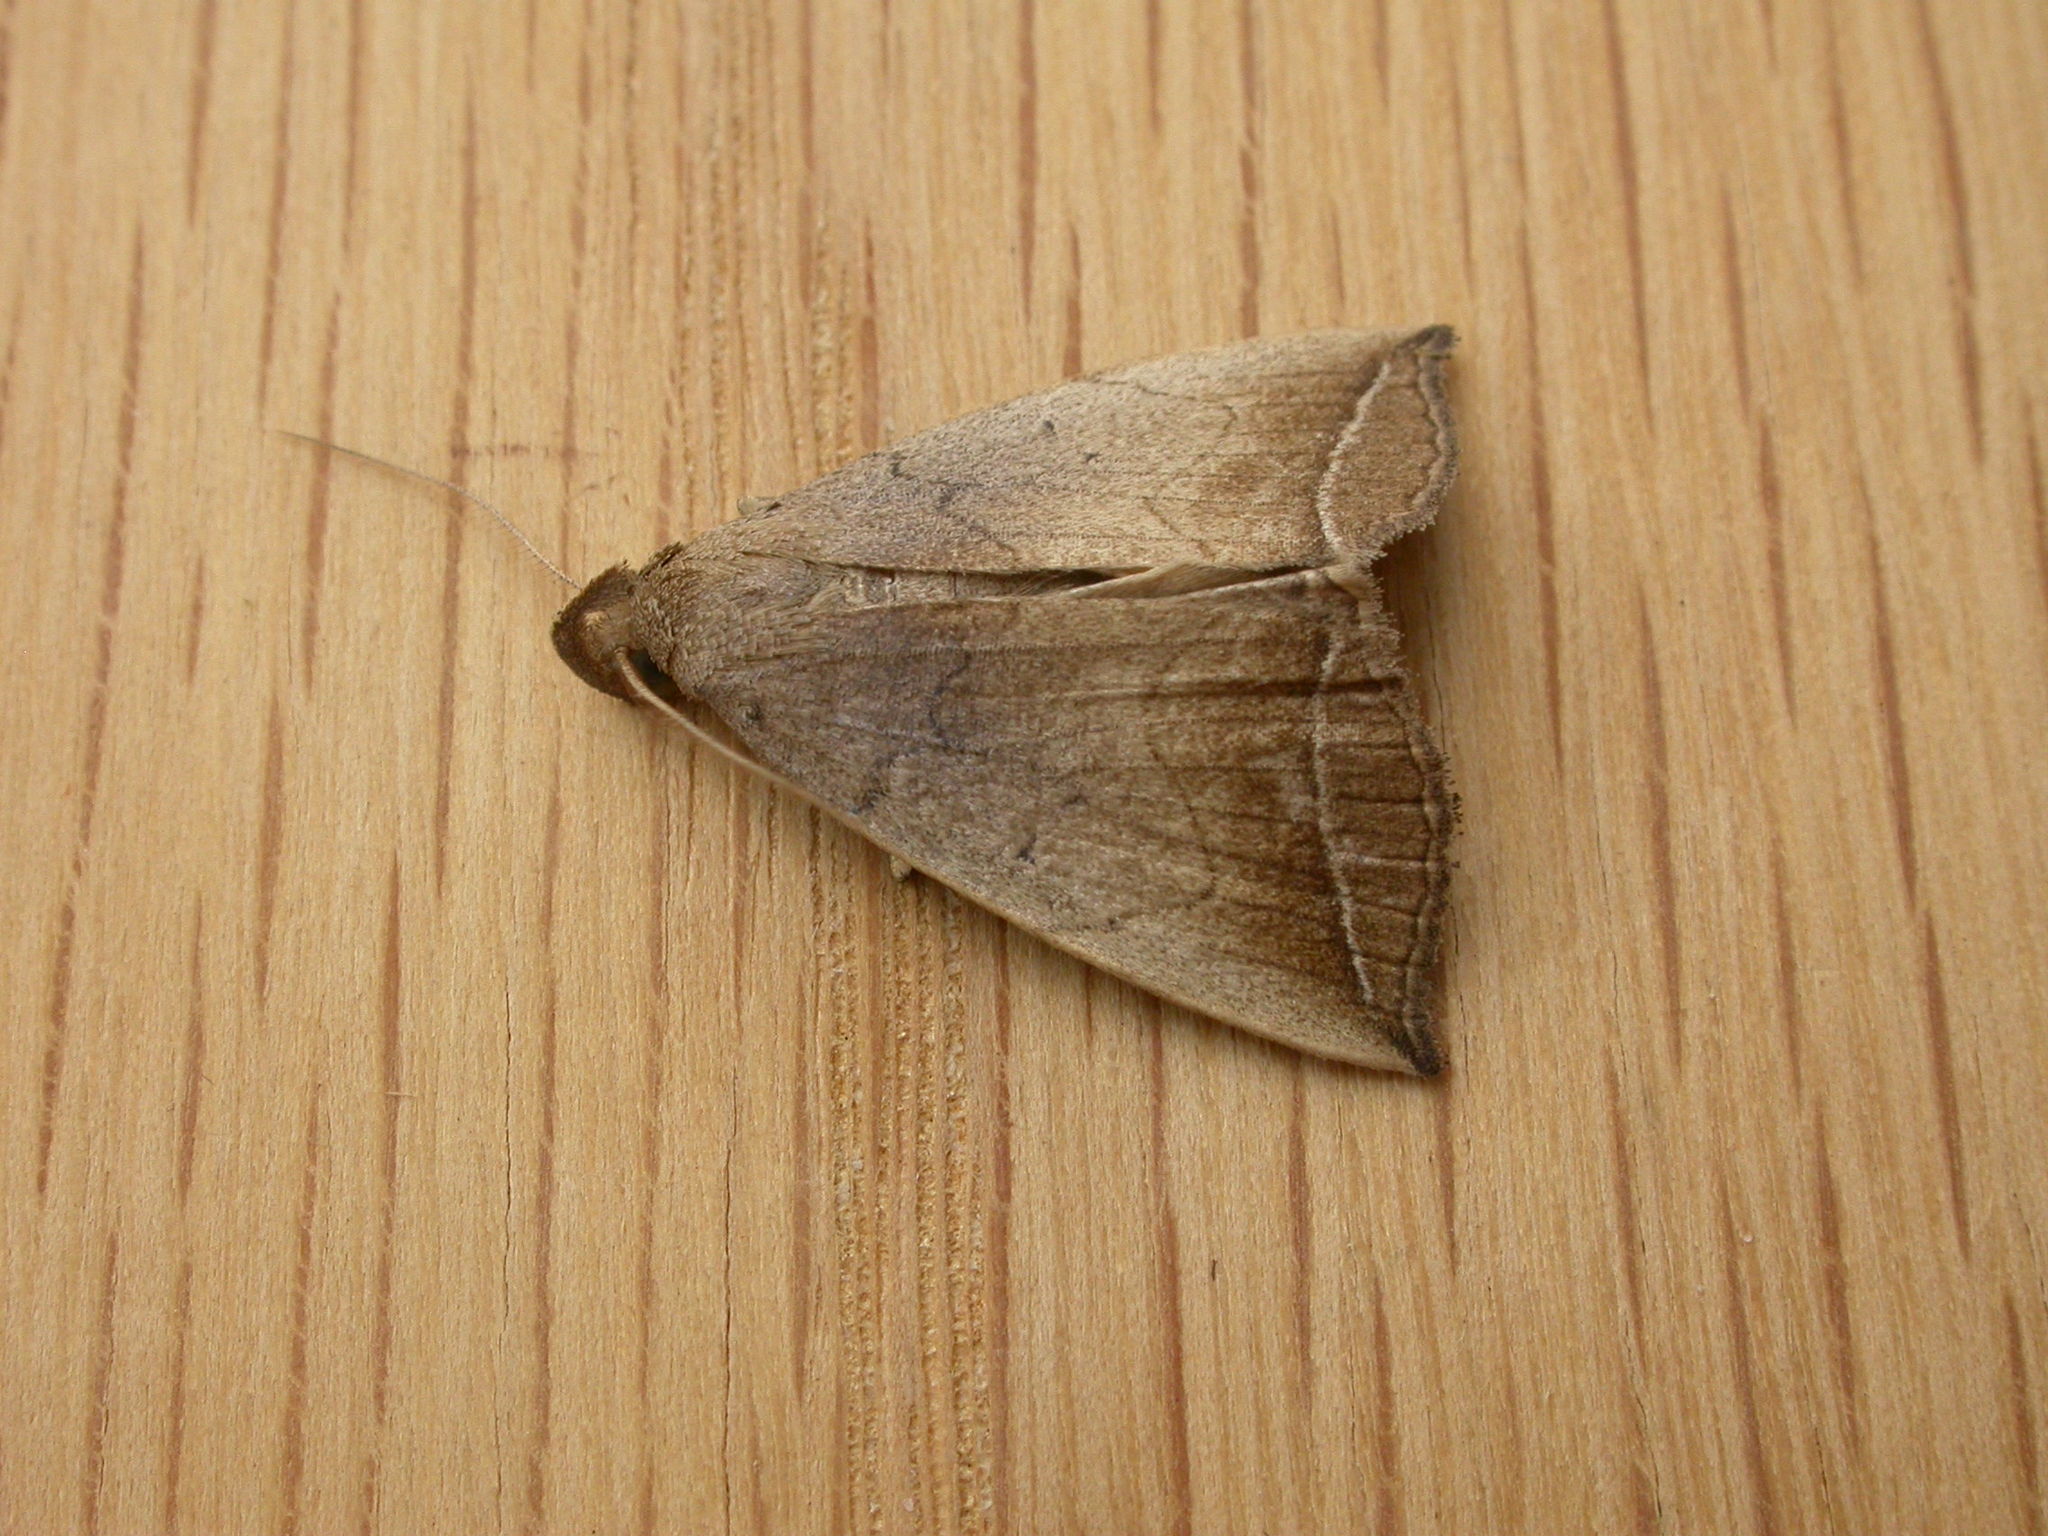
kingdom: Animalia
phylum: Arthropoda
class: Insecta
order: Lepidoptera
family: Erebidae
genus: Simplicia
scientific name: Simplicia armatalis
